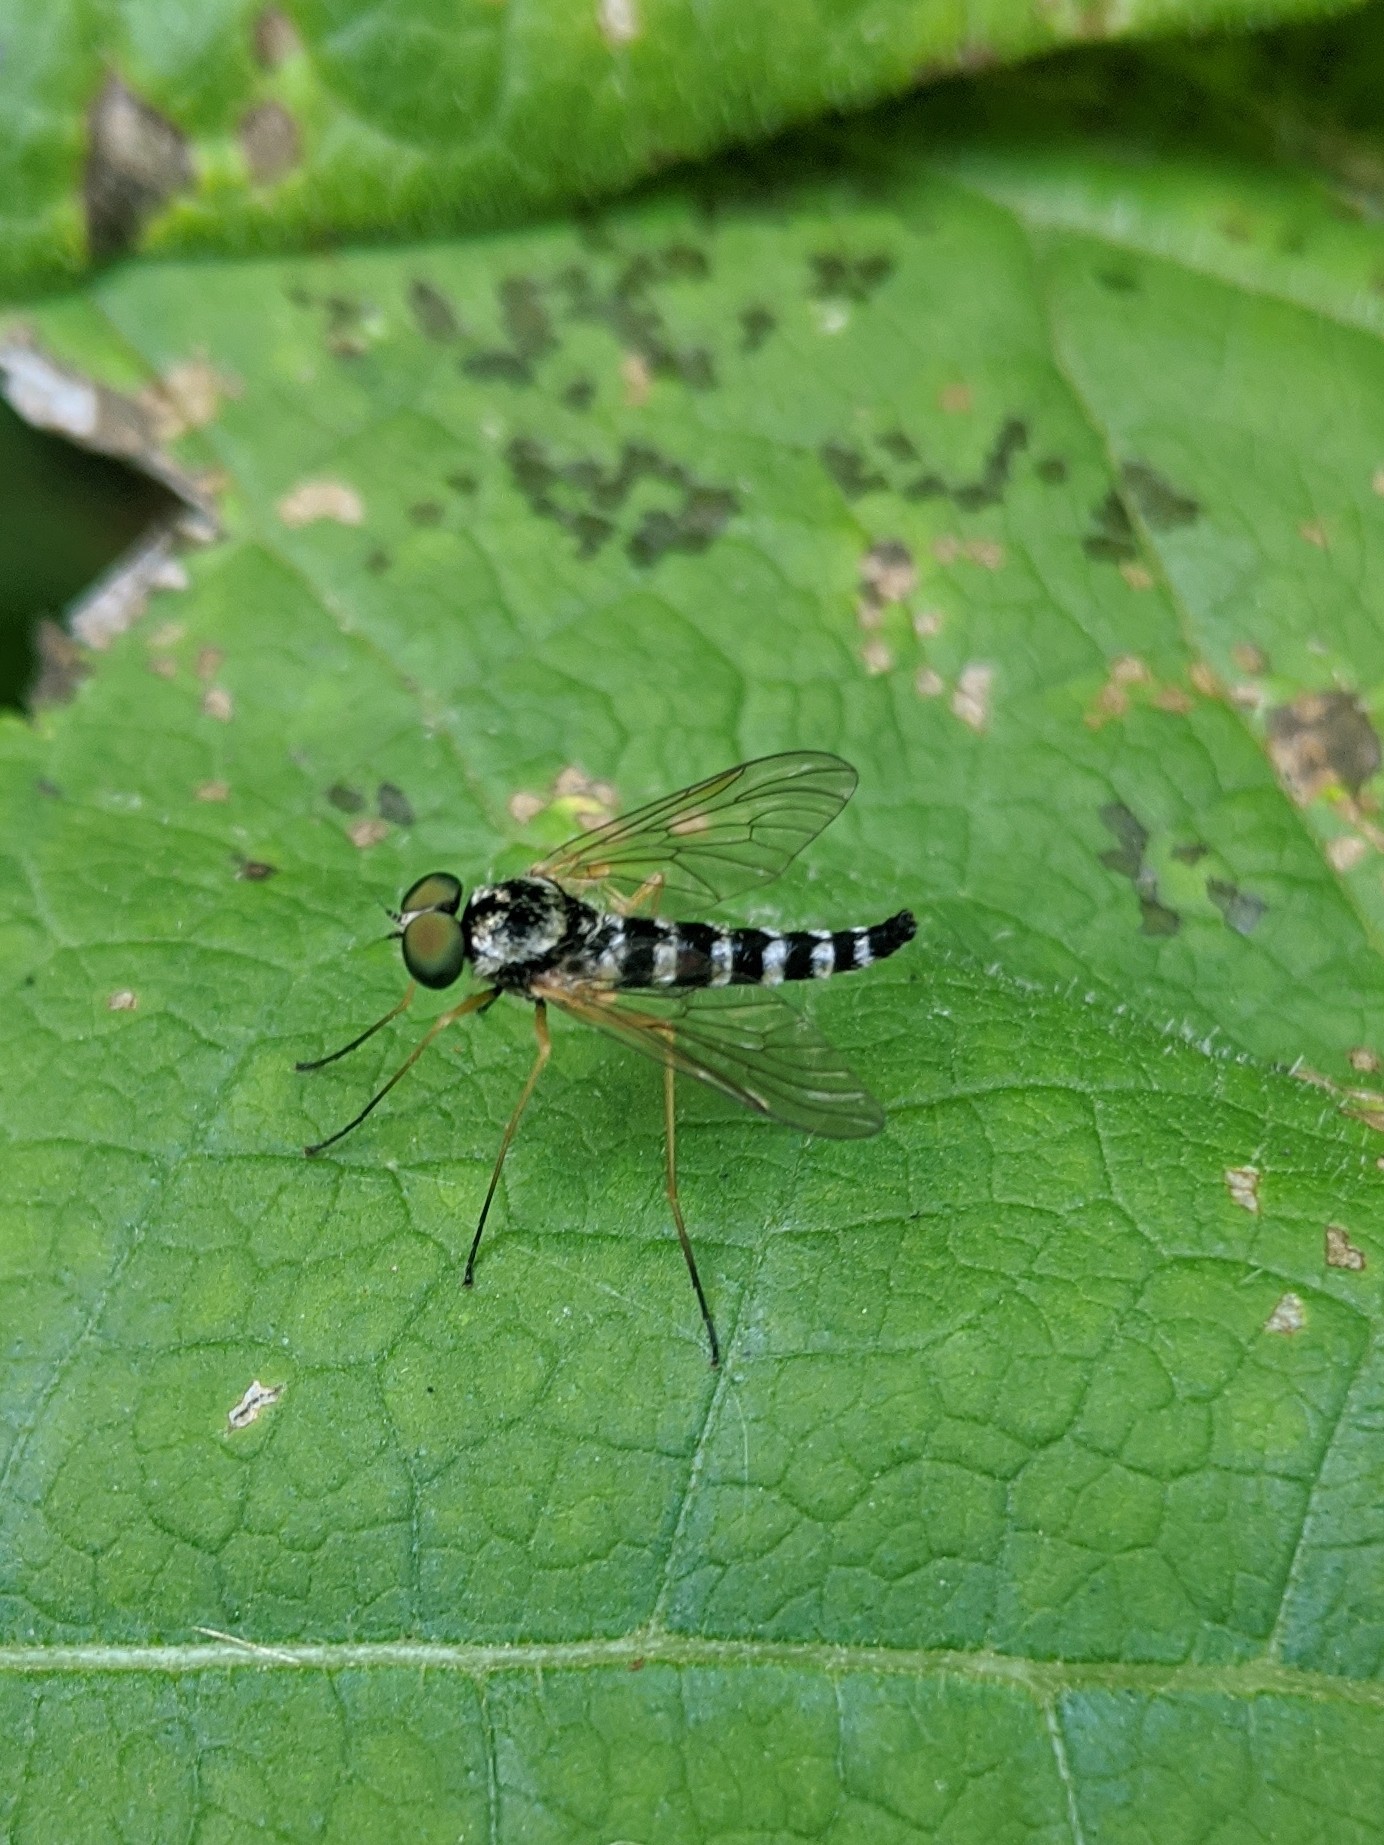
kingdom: Animalia
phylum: Arthropoda
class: Insecta
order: Diptera
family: Rhagionidae
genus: Chrysopilus
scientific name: Chrysopilus ornatus
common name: Ornate snipe fly
